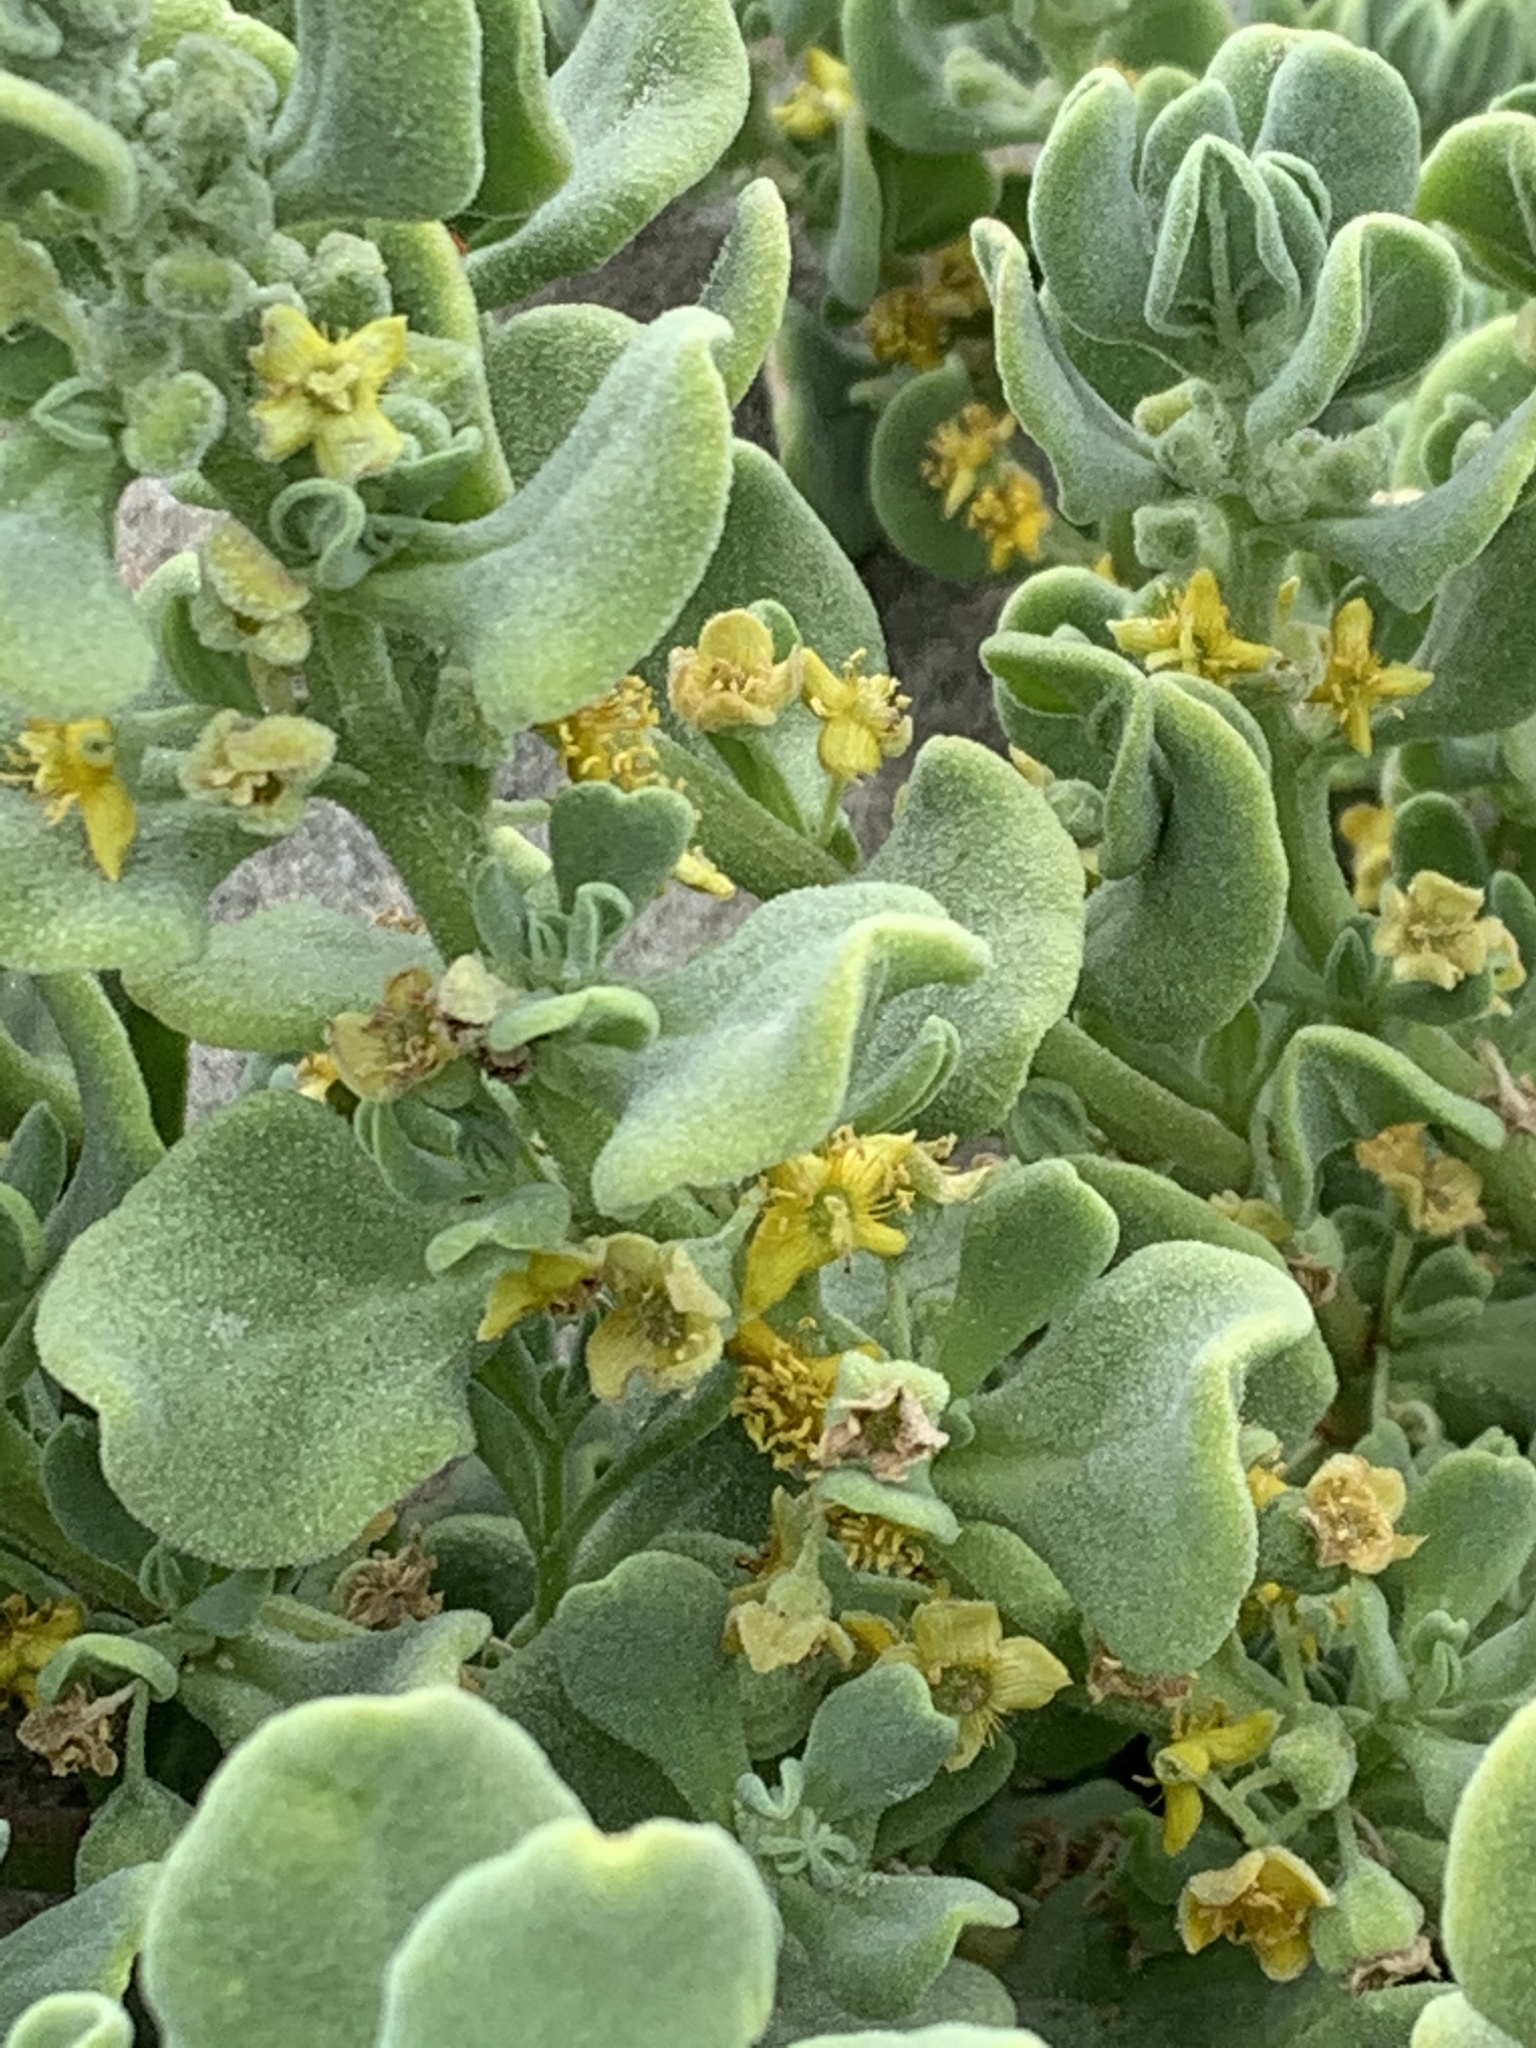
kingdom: Plantae
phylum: Tracheophyta
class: Magnoliopsida
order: Caryophyllales
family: Aizoaceae
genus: Tetragonia
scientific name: Tetragonia decumbens
